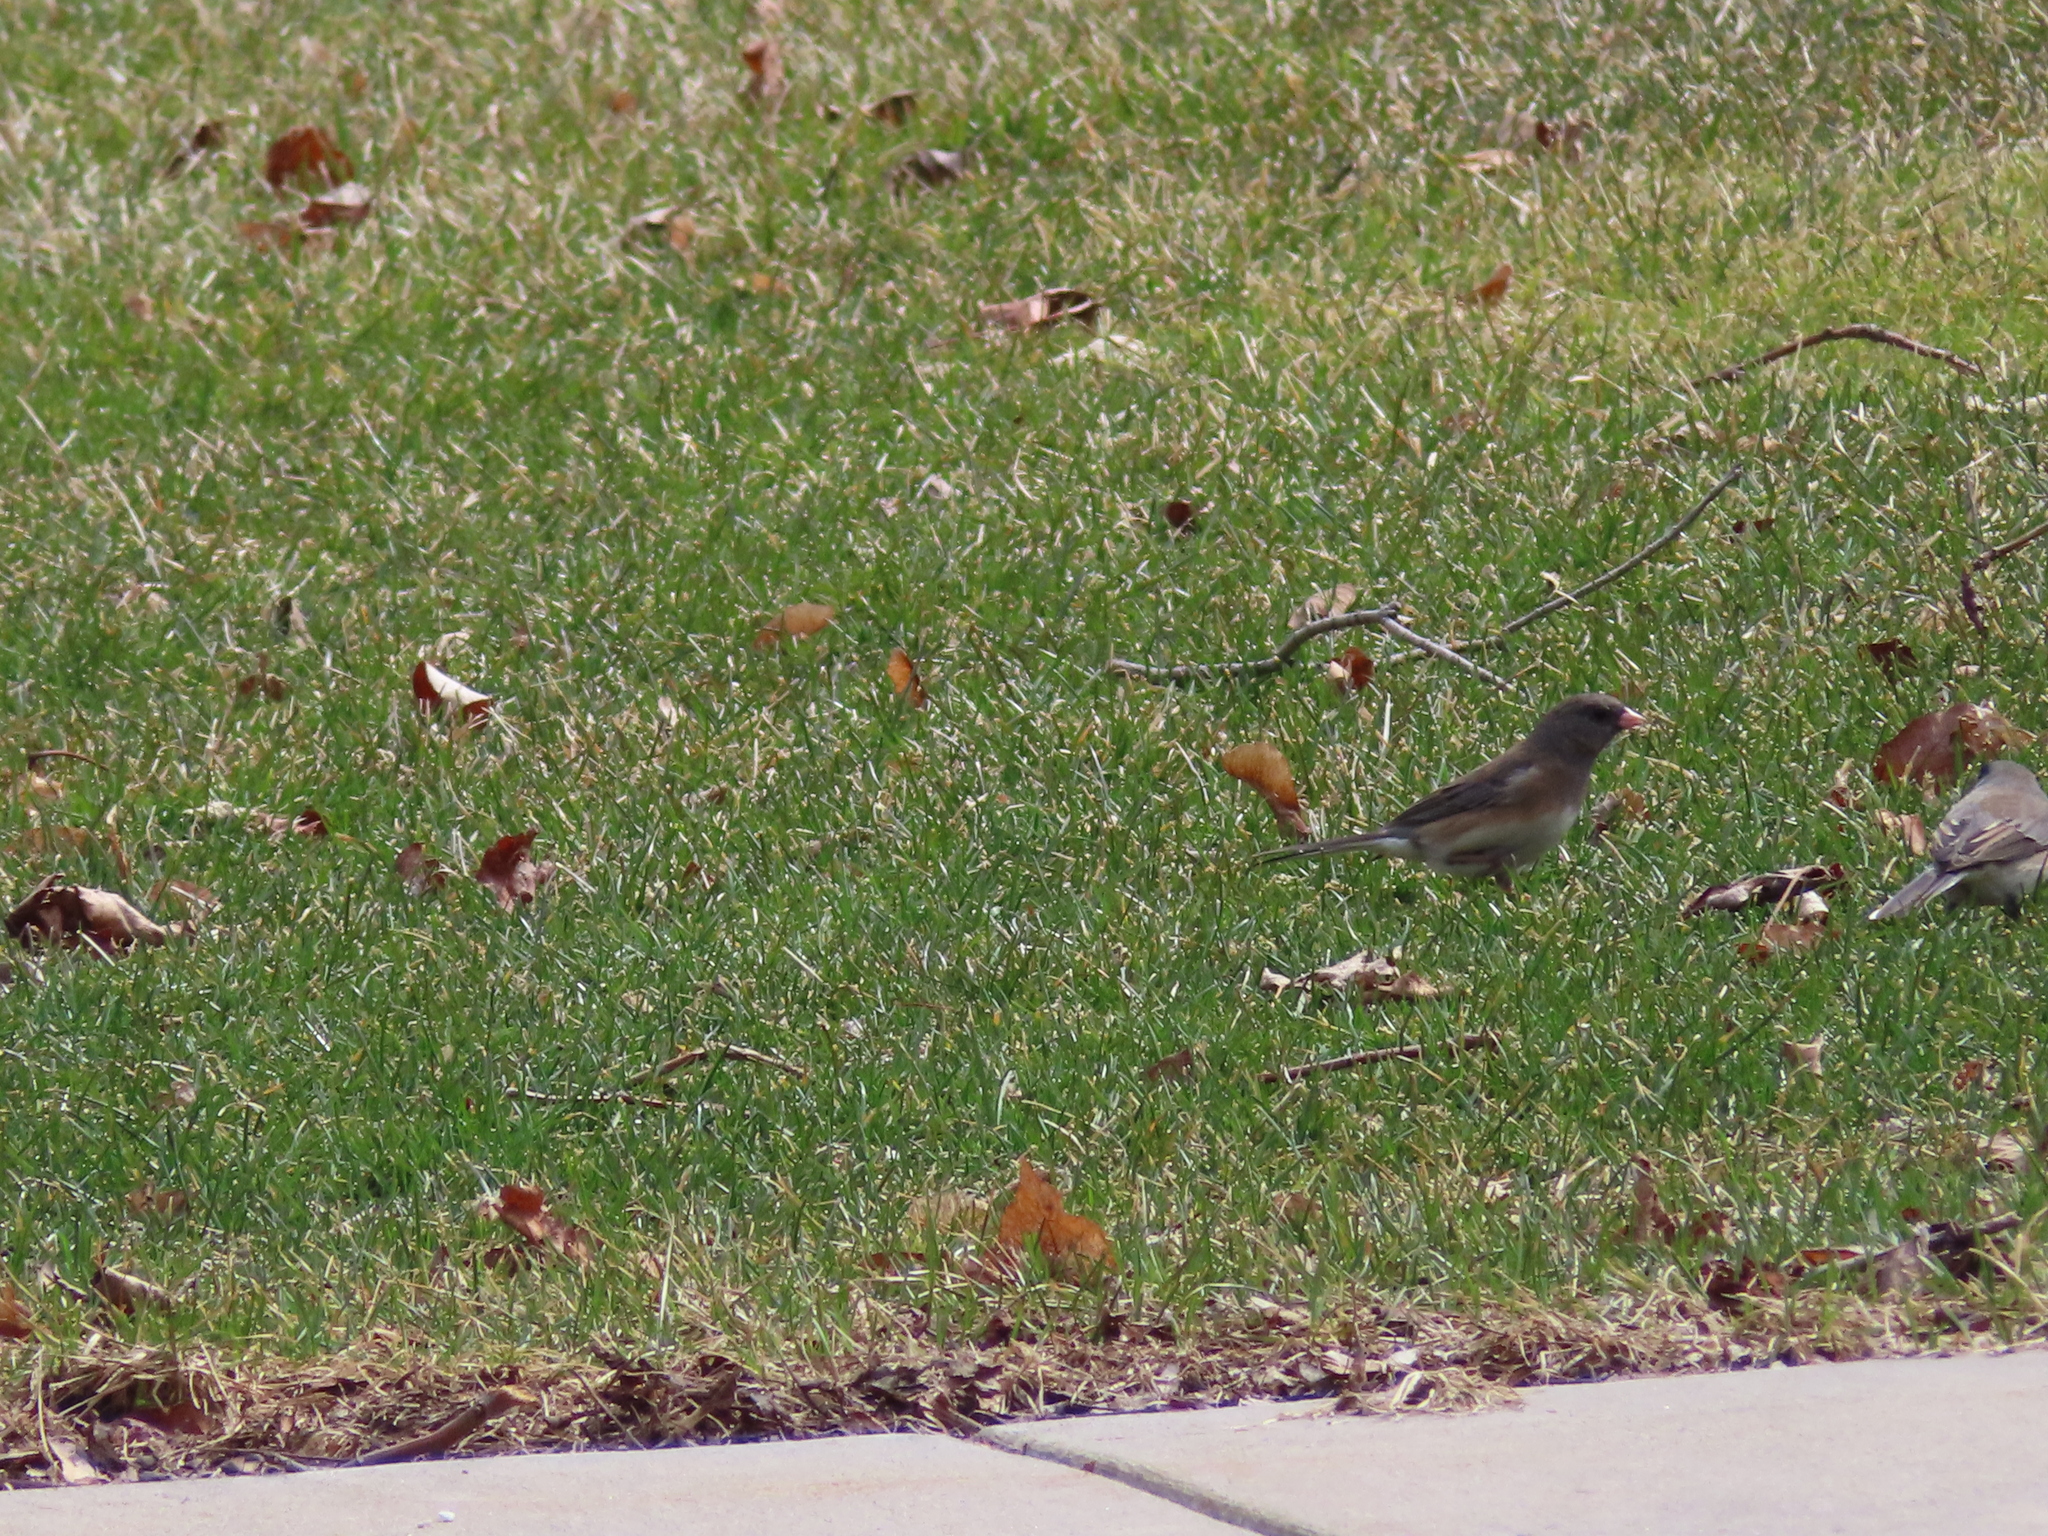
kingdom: Animalia
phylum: Chordata
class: Aves
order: Passeriformes
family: Passerellidae
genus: Junco
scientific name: Junco hyemalis
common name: Dark-eyed junco
